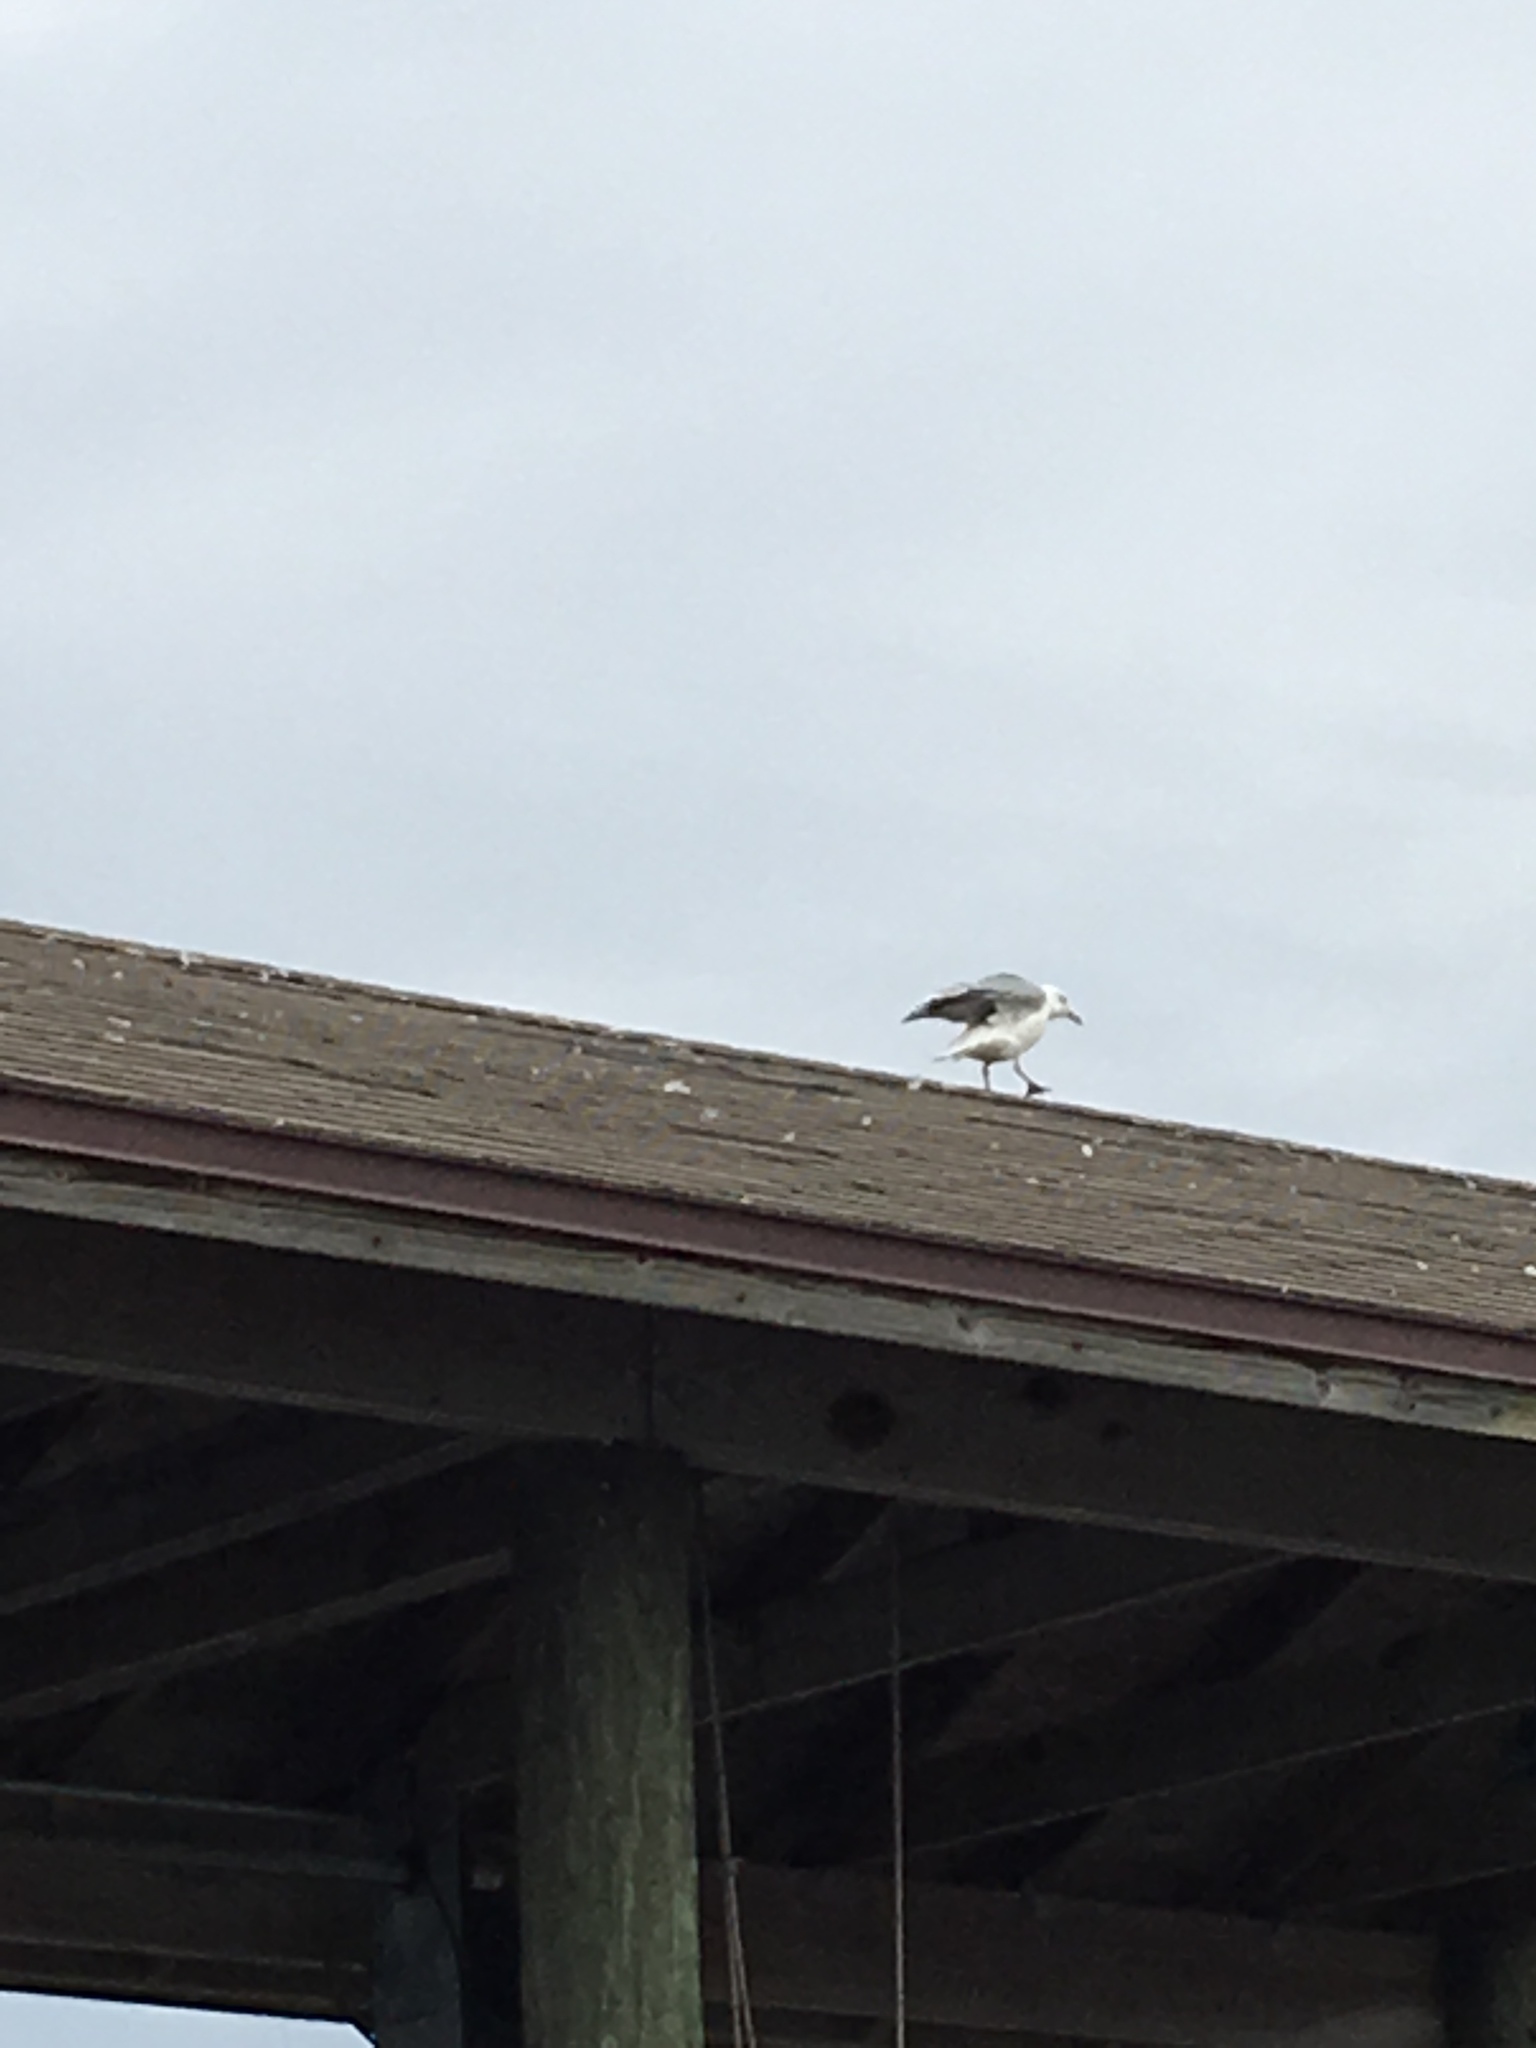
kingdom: Animalia
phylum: Chordata
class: Aves
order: Charadriiformes
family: Laridae
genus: Larus
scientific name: Larus delawarensis
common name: Ring-billed gull
